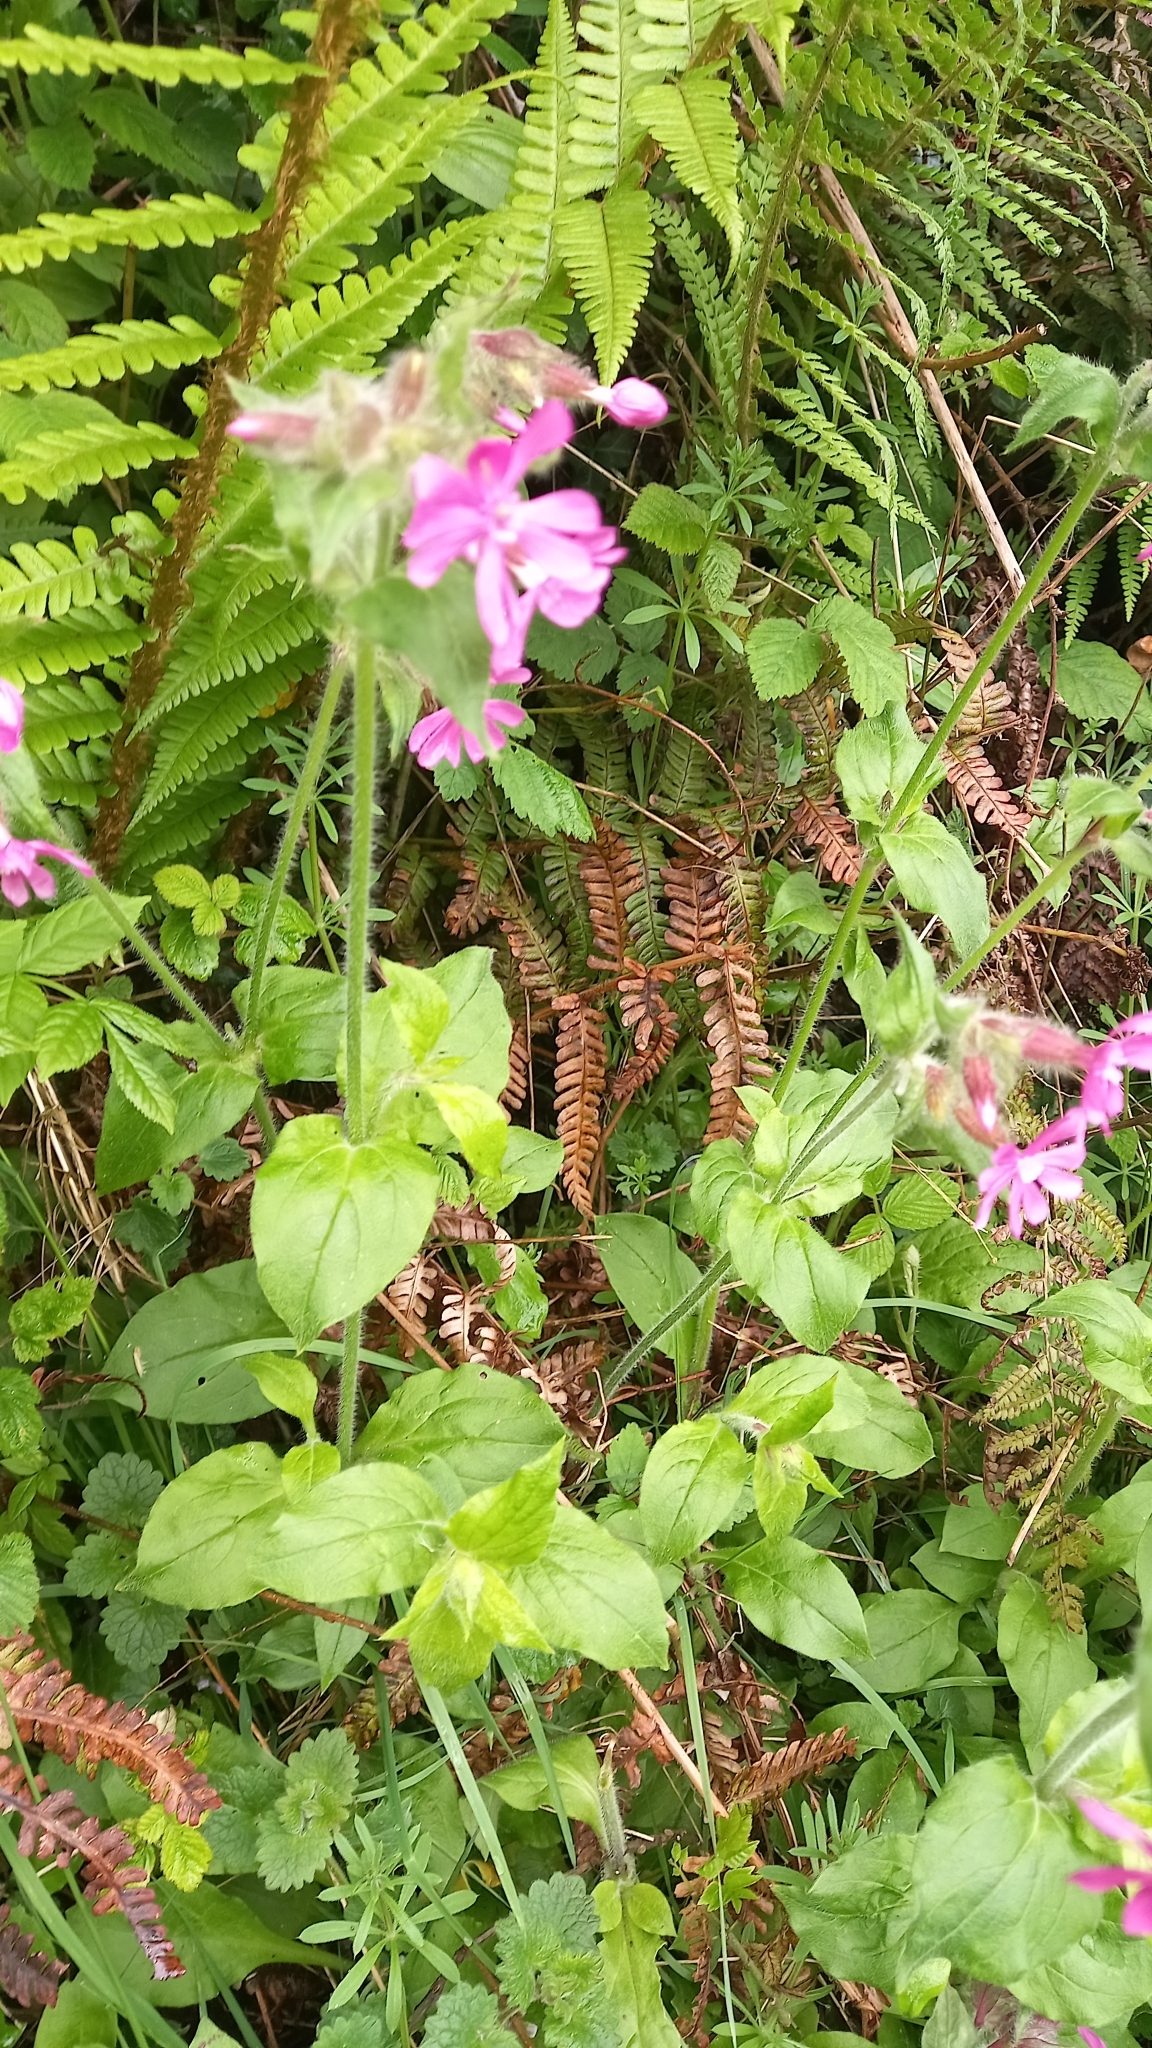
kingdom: Plantae
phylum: Tracheophyta
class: Magnoliopsida
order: Caryophyllales
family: Caryophyllaceae
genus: Silene
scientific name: Silene dioica
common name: Red campion
